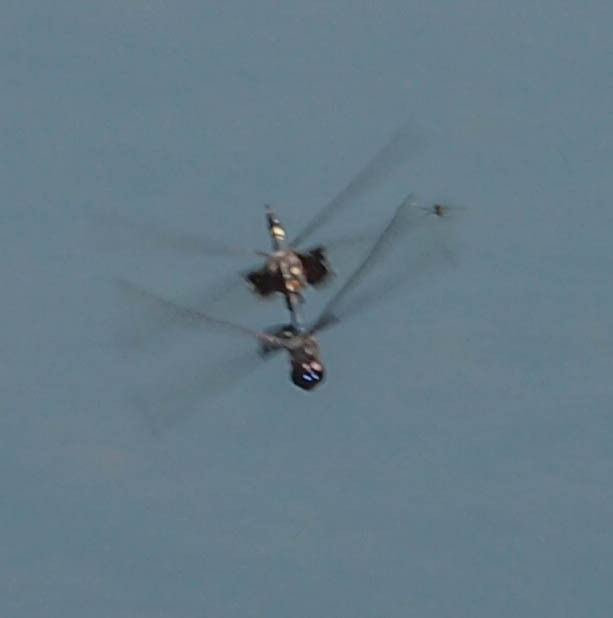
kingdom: Animalia
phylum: Arthropoda
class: Insecta
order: Odonata
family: Libellulidae
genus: Tramea
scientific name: Tramea lacerata
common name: Black saddlebags
